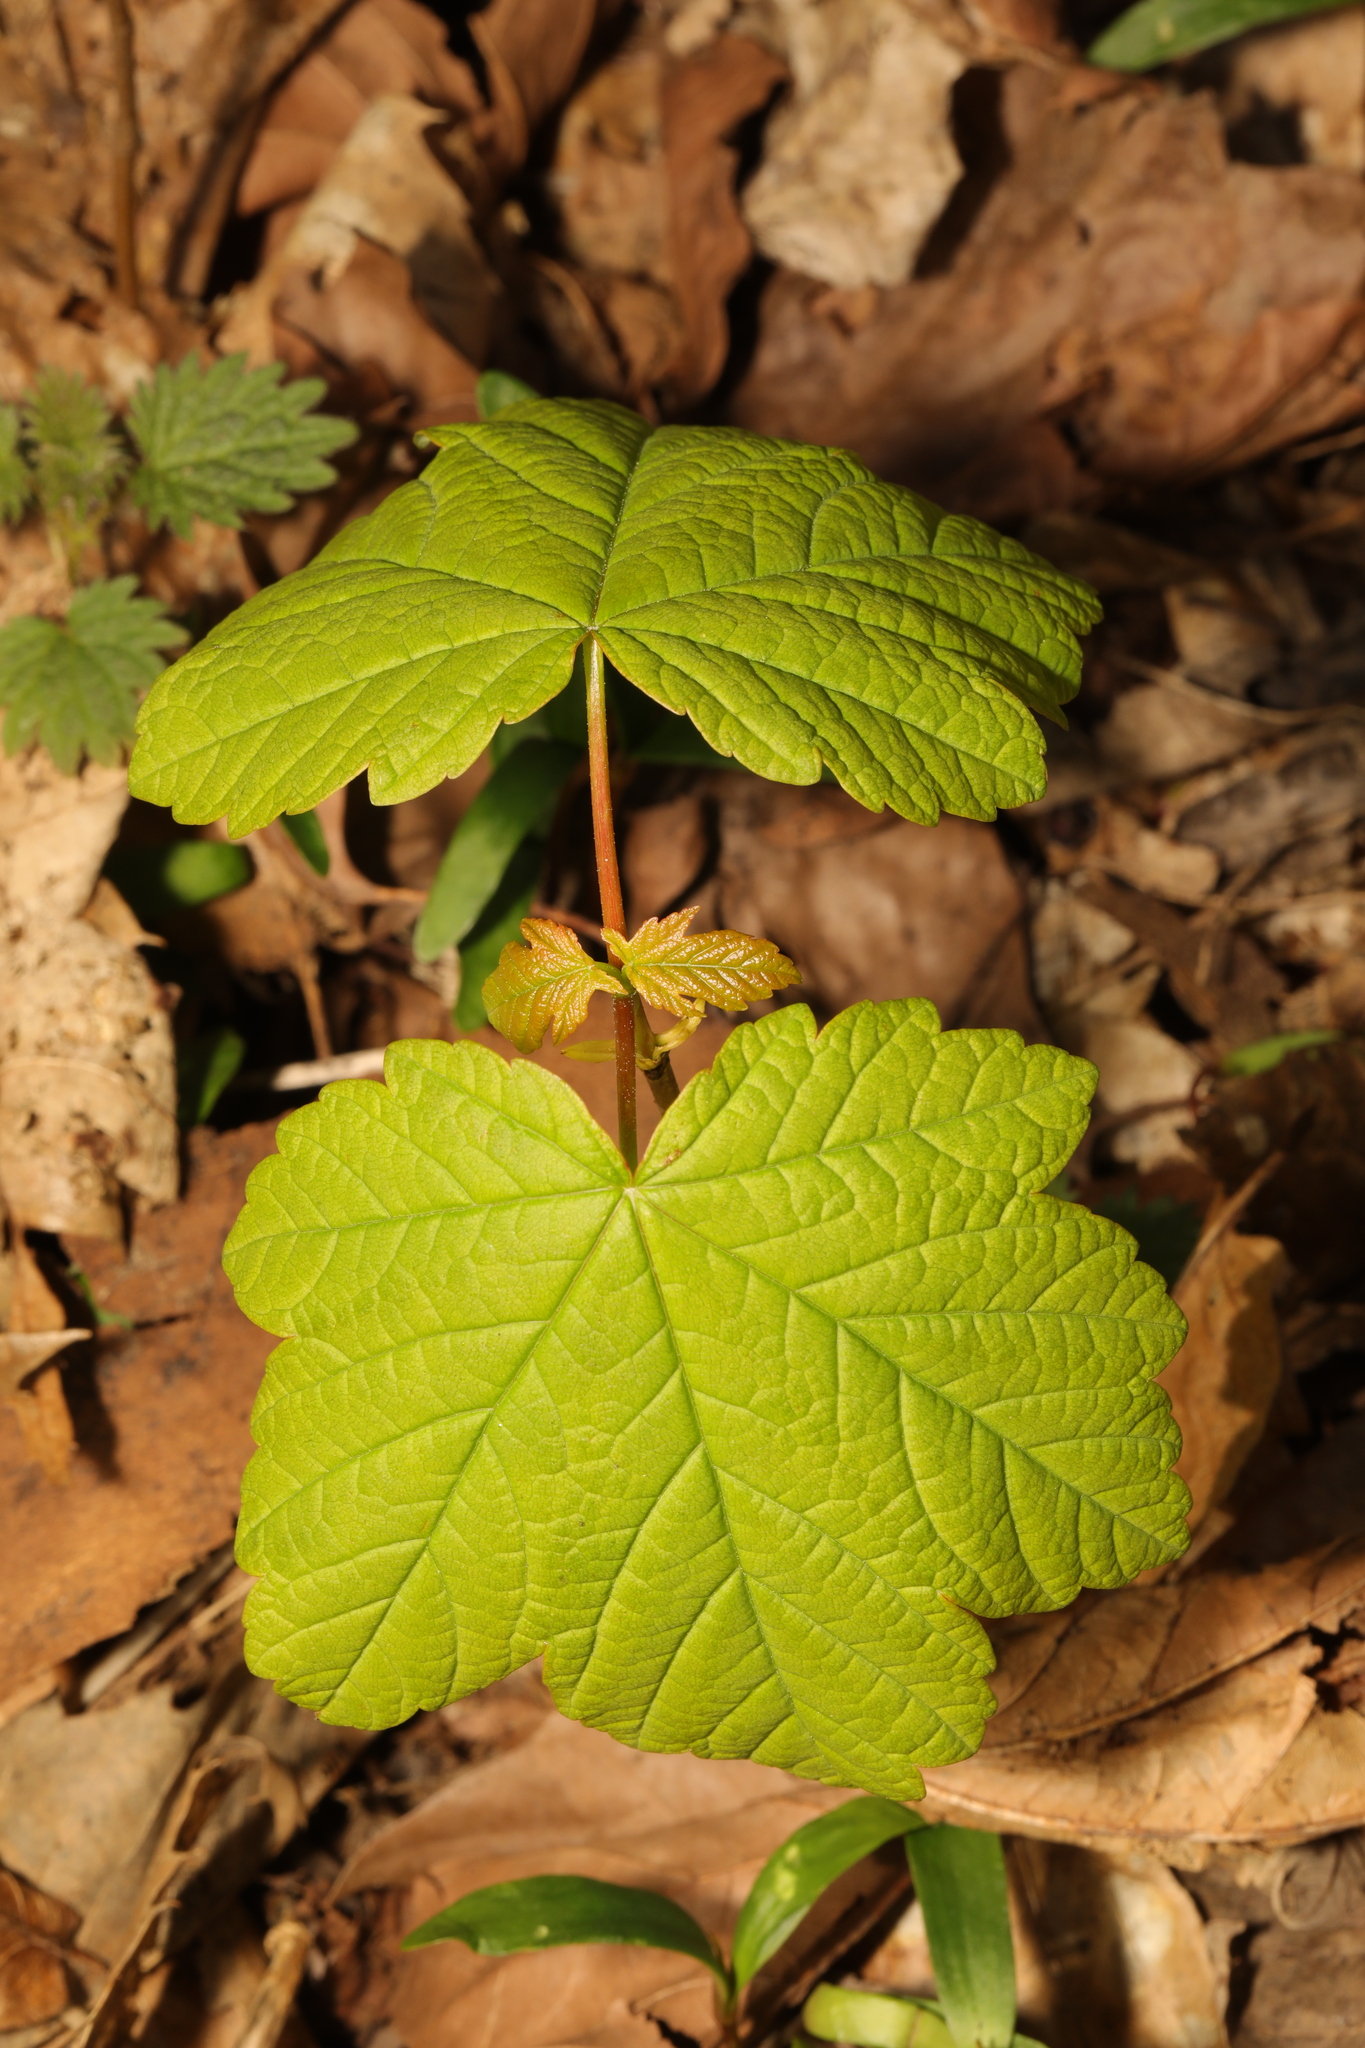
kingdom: Plantae
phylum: Tracheophyta
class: Magnoliopsida
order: Sapindales
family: Sapindaceae
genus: Acer
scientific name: Acer pseudoplatanus
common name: Sycamore
